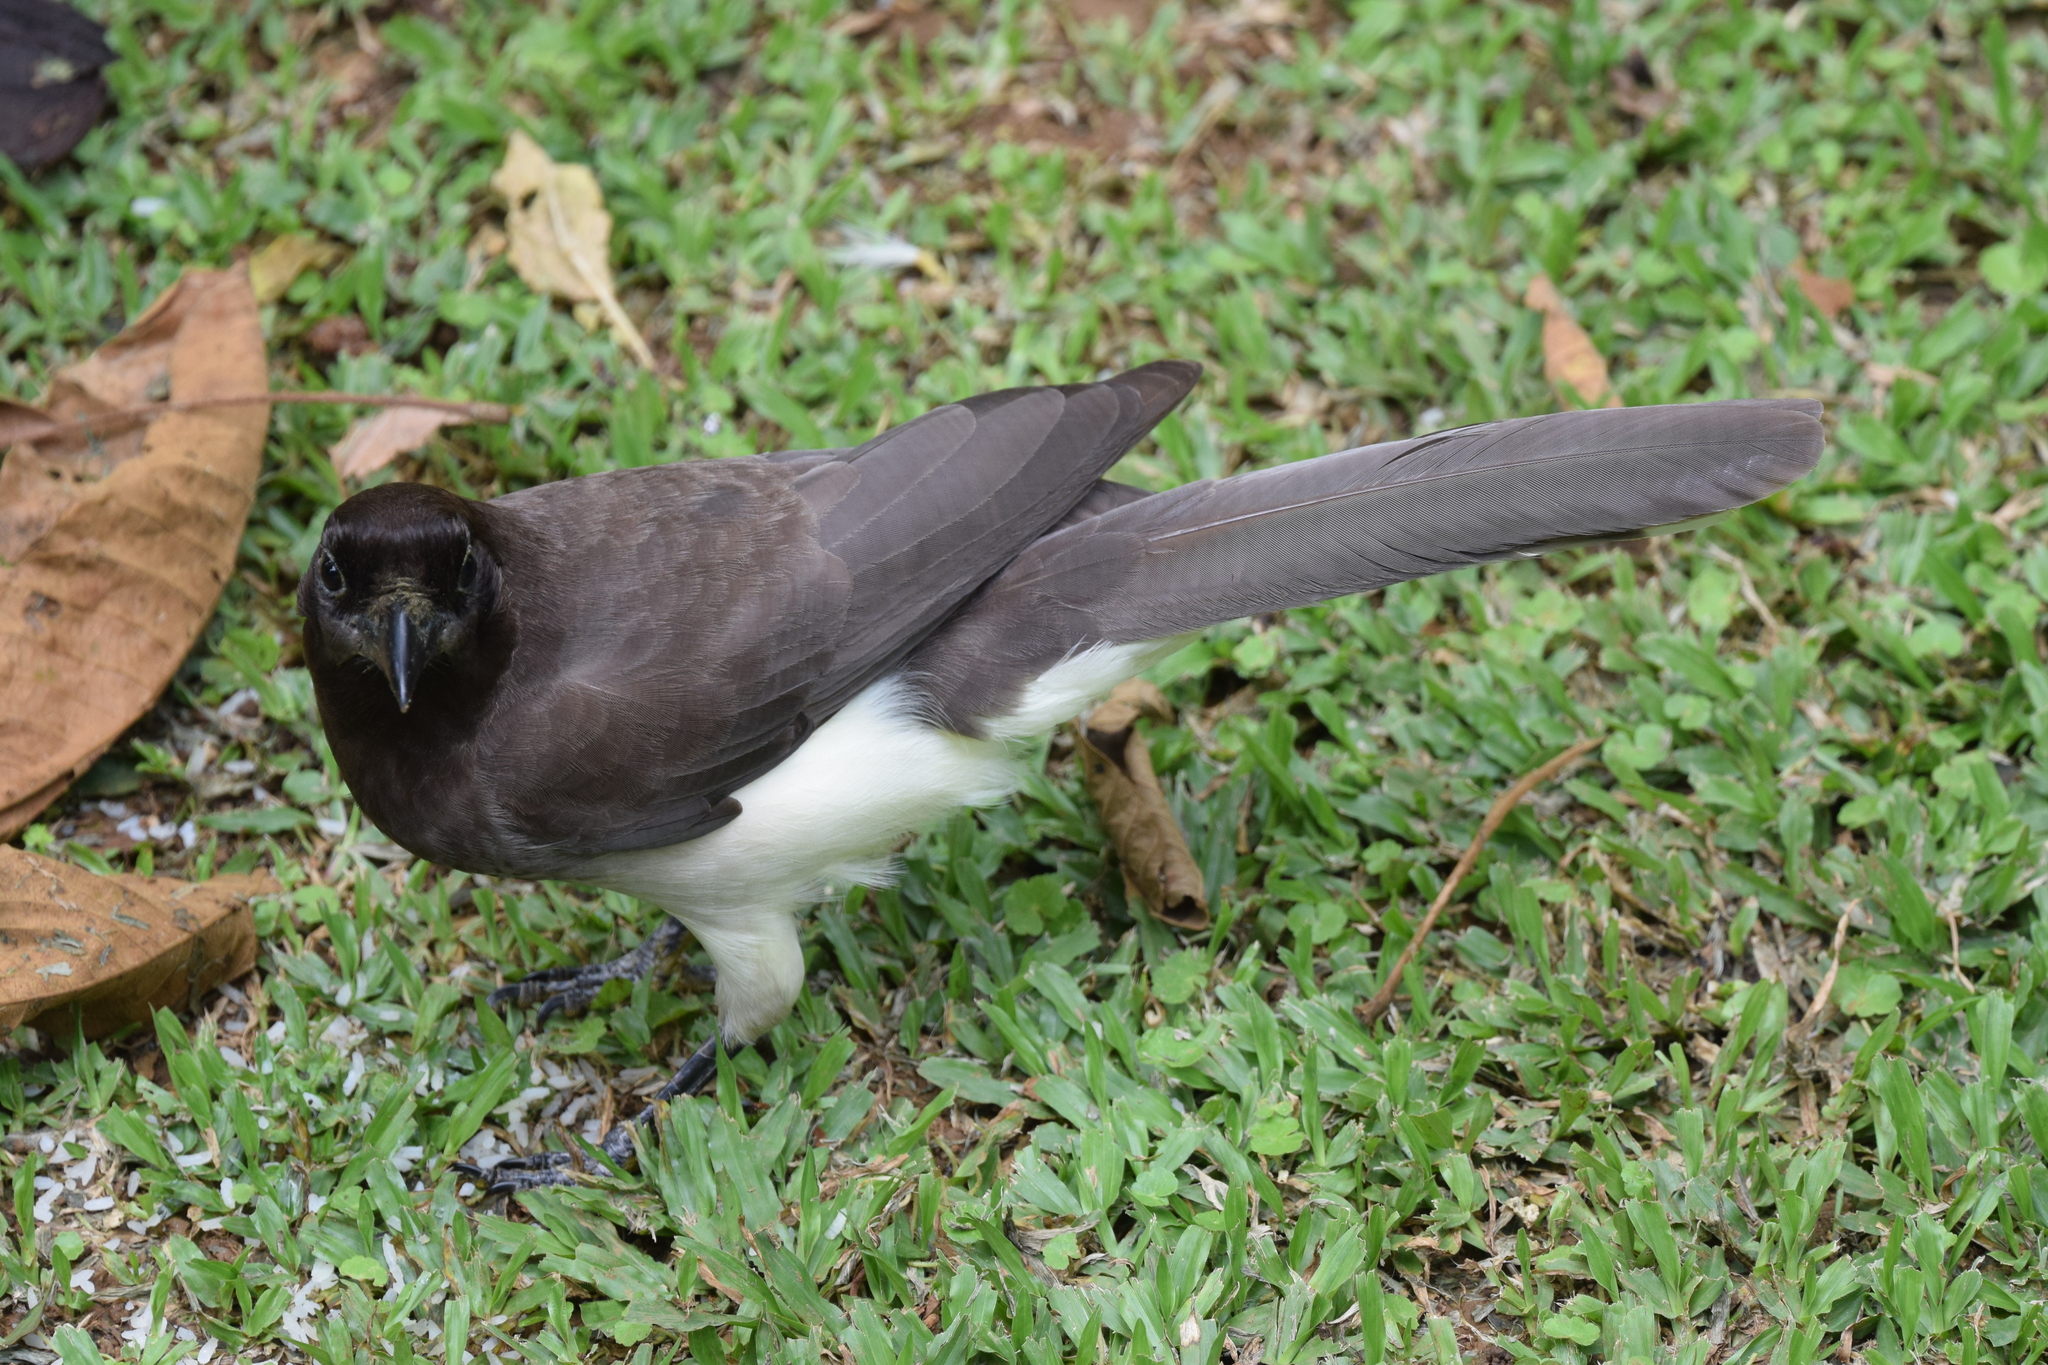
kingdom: Animalia
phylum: Chordata
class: Aves
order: Passeriformes
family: Corvidae
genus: Psilorhinus
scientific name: Psilorhinus morio
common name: Brown jay
